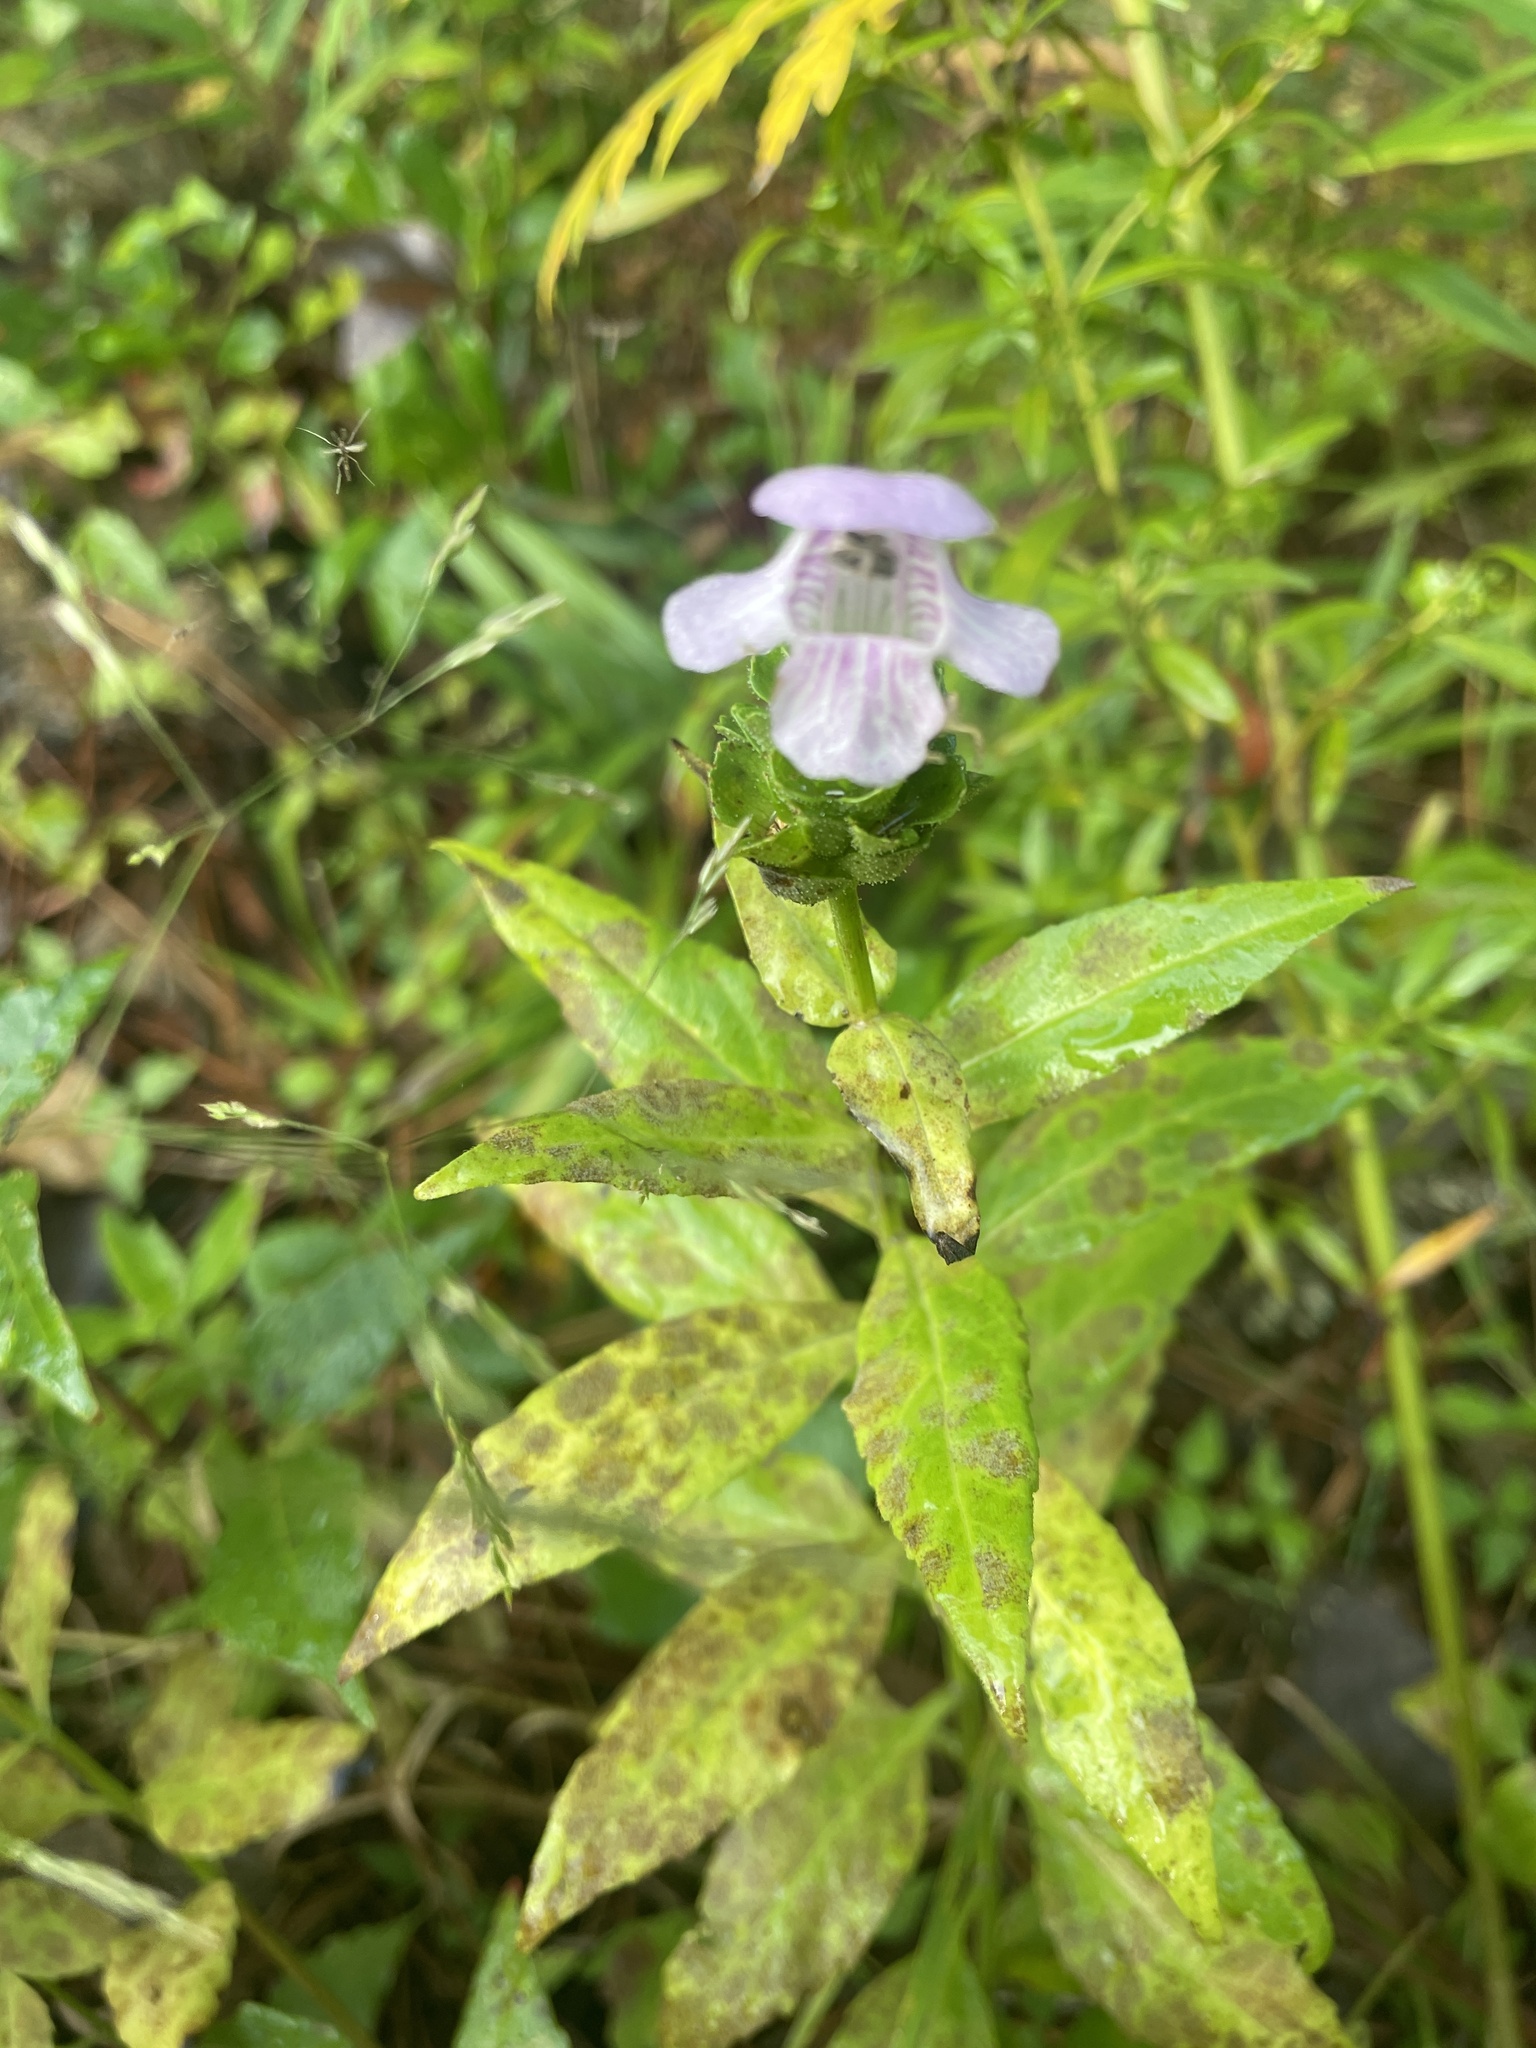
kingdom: Plantae
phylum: Tracheophyta
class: Magnoliopsida
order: Lamiales
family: Lamiaceae
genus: Macbridea
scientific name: Macbridea caroliniana
